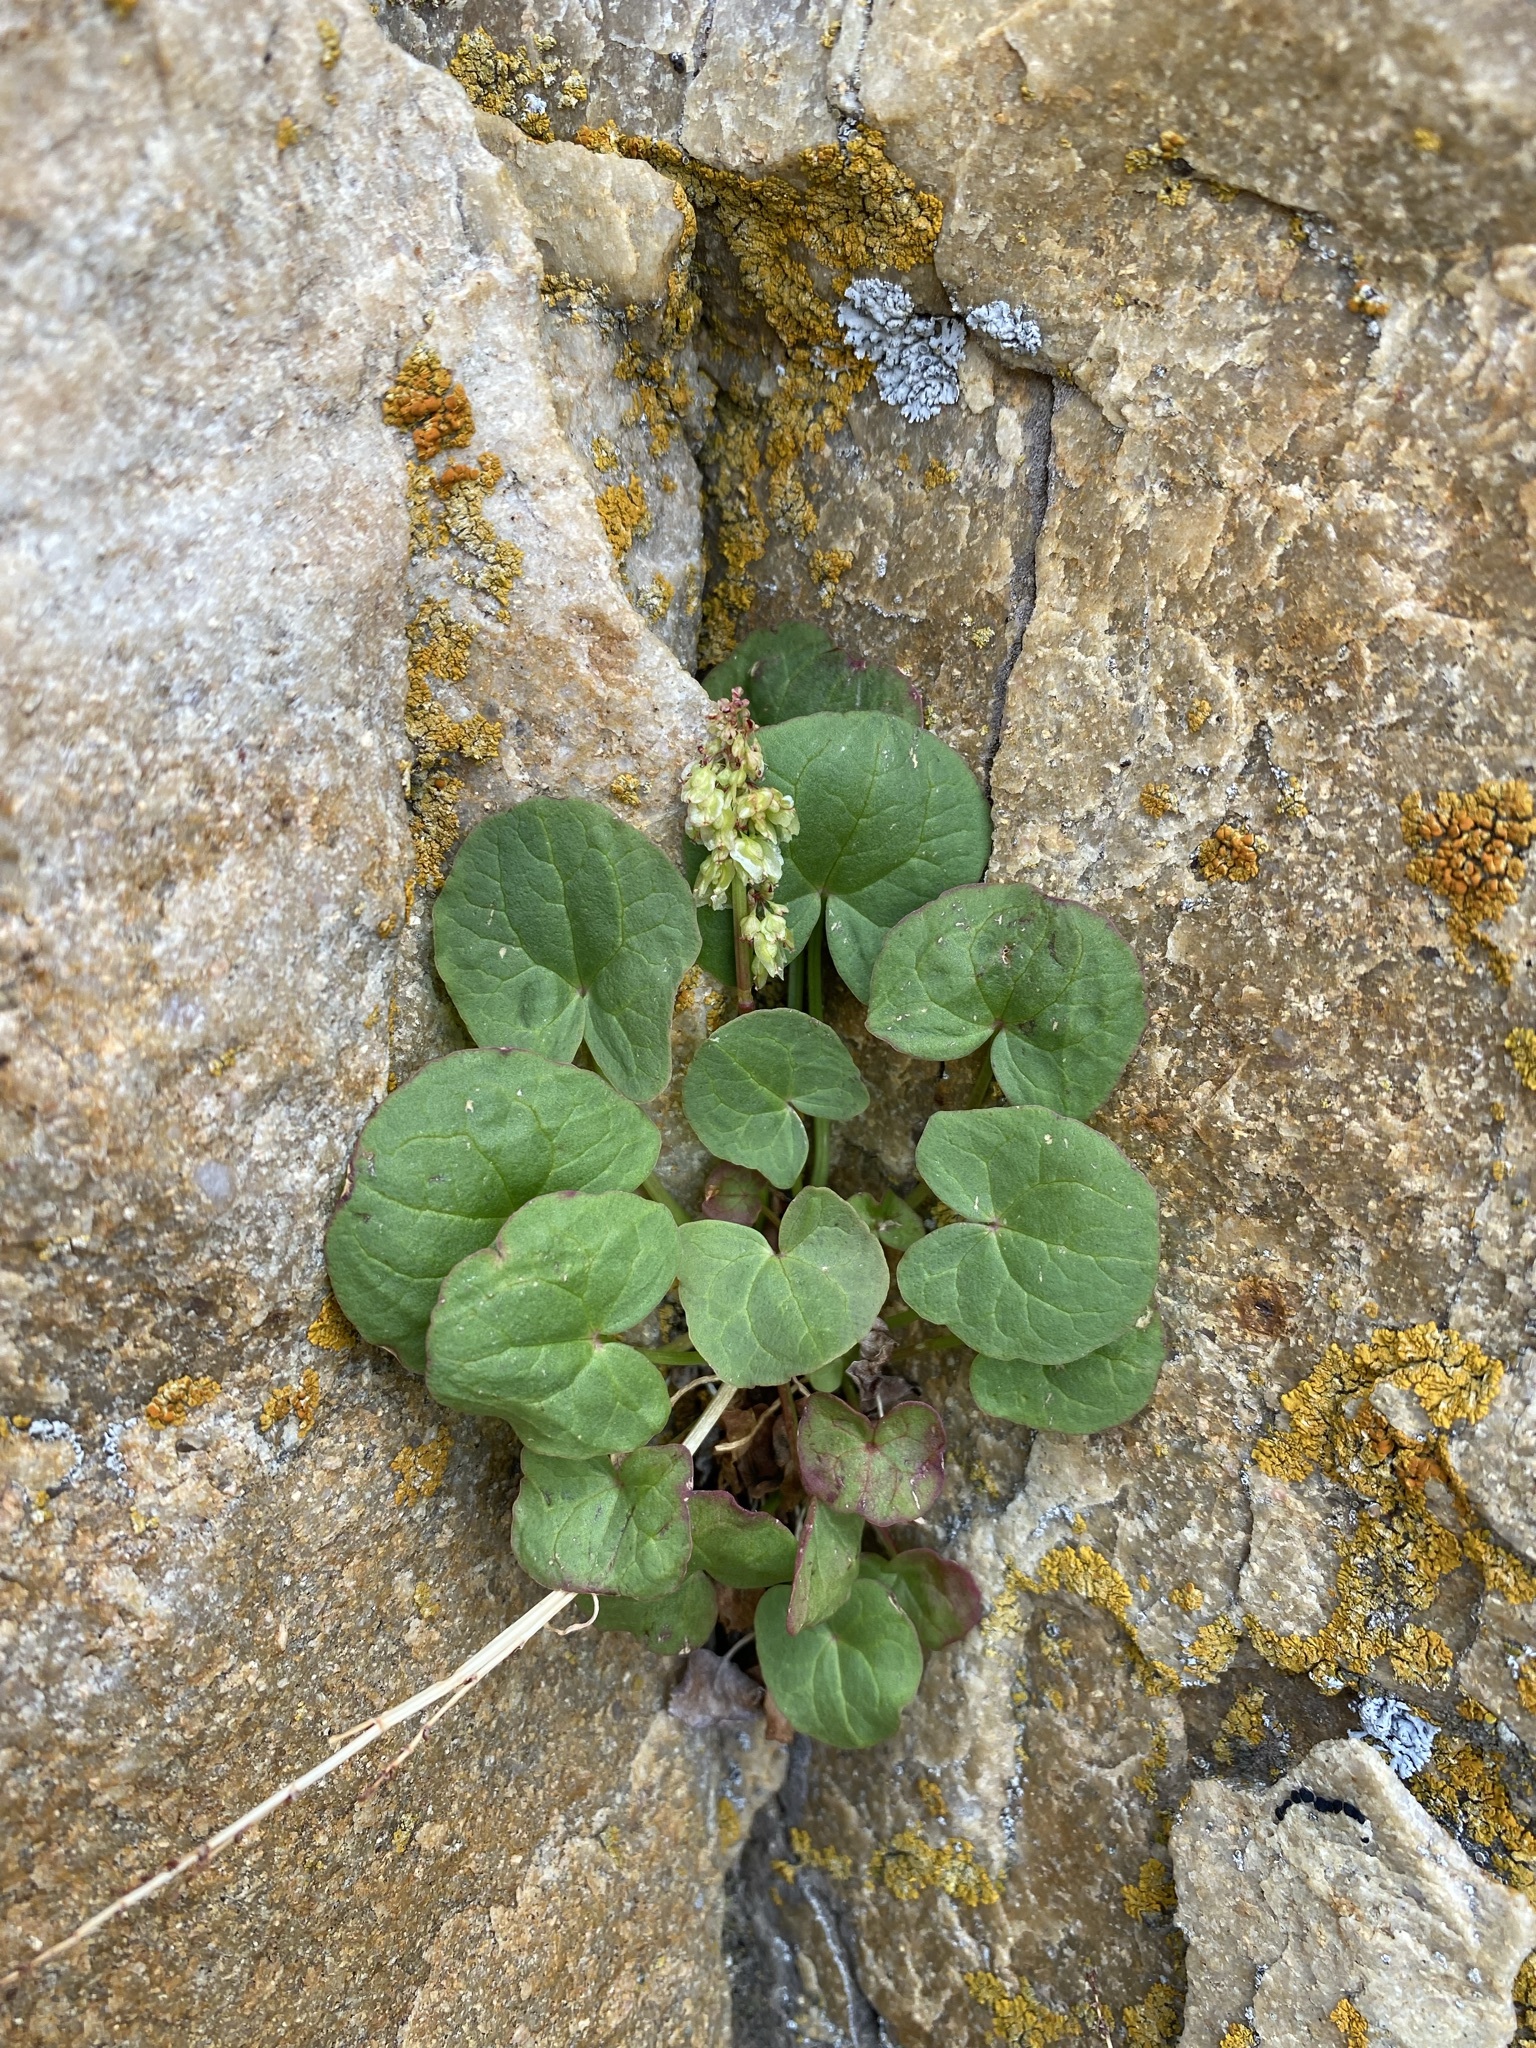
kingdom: Plantae
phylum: Tracheophyta
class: Magnoliopsida
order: Caryophyllales
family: Polygonaceae
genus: Oxyria
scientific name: Oxyria digyna
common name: Alpine mountain-sorrel
